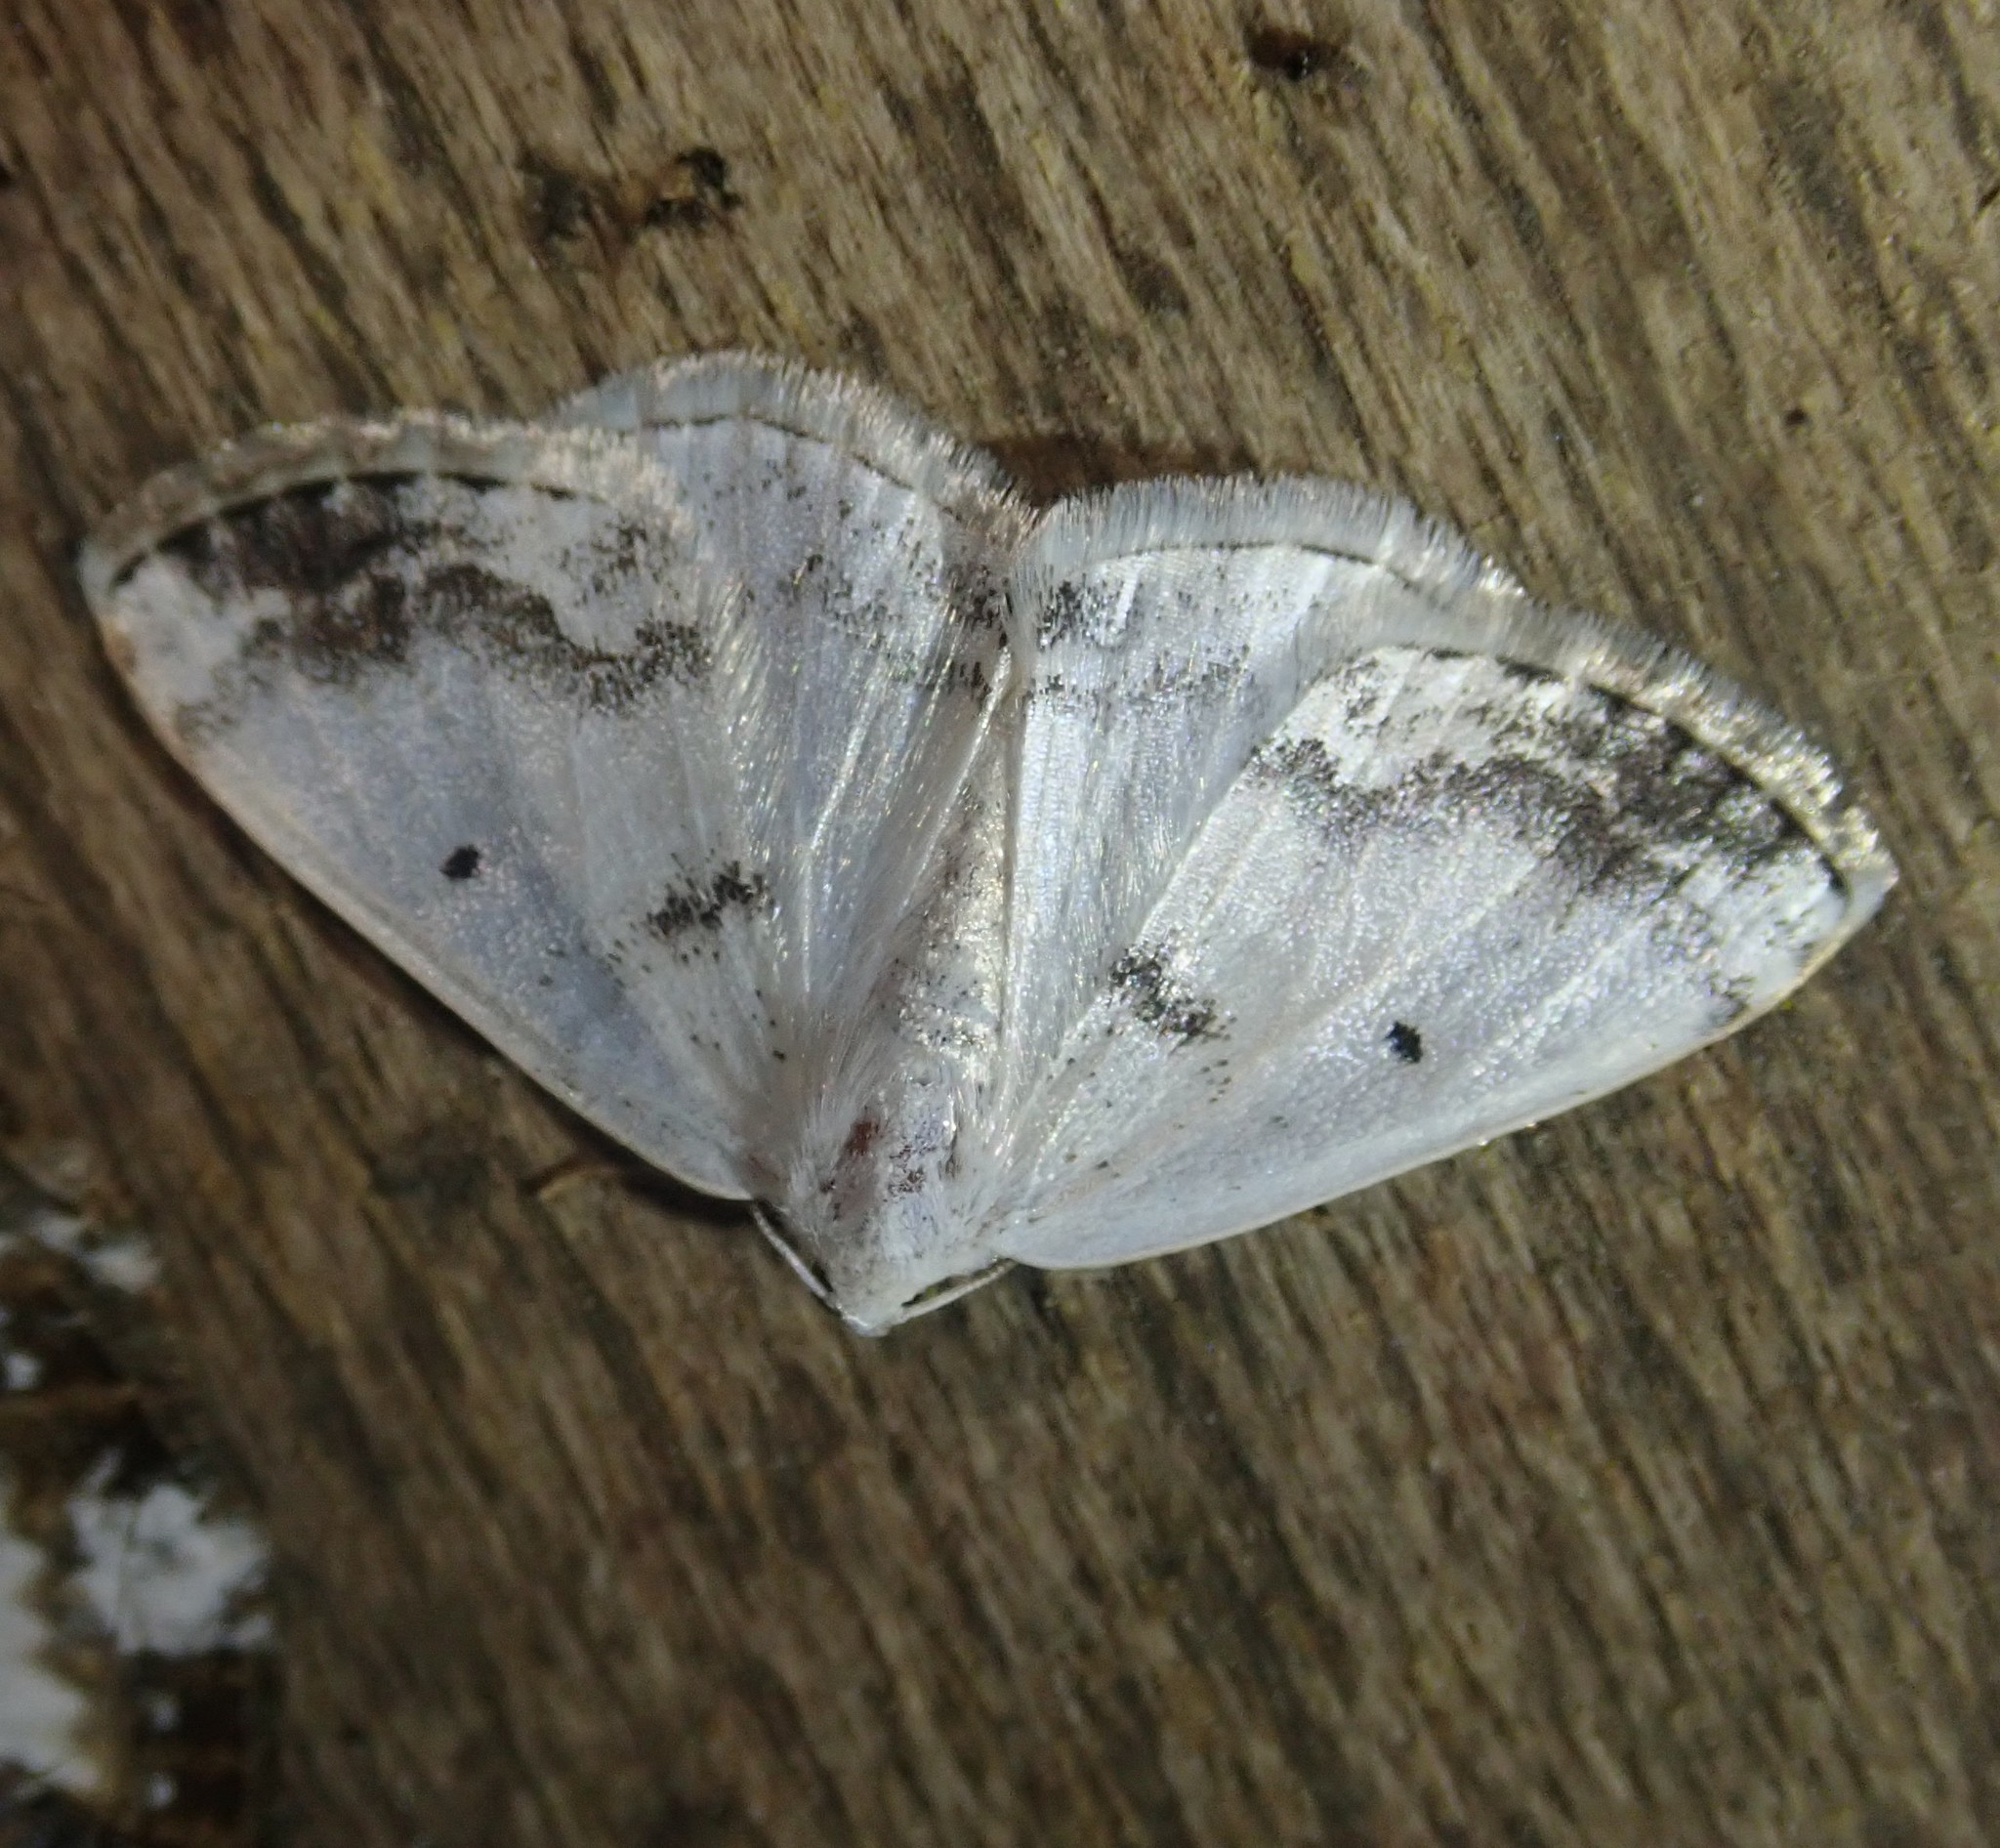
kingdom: Animalia
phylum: Arthropoda
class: Insecta
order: Lepidoptera
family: Geometridae
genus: Lomographa
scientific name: Lomographa temerata
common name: Clouded silver
